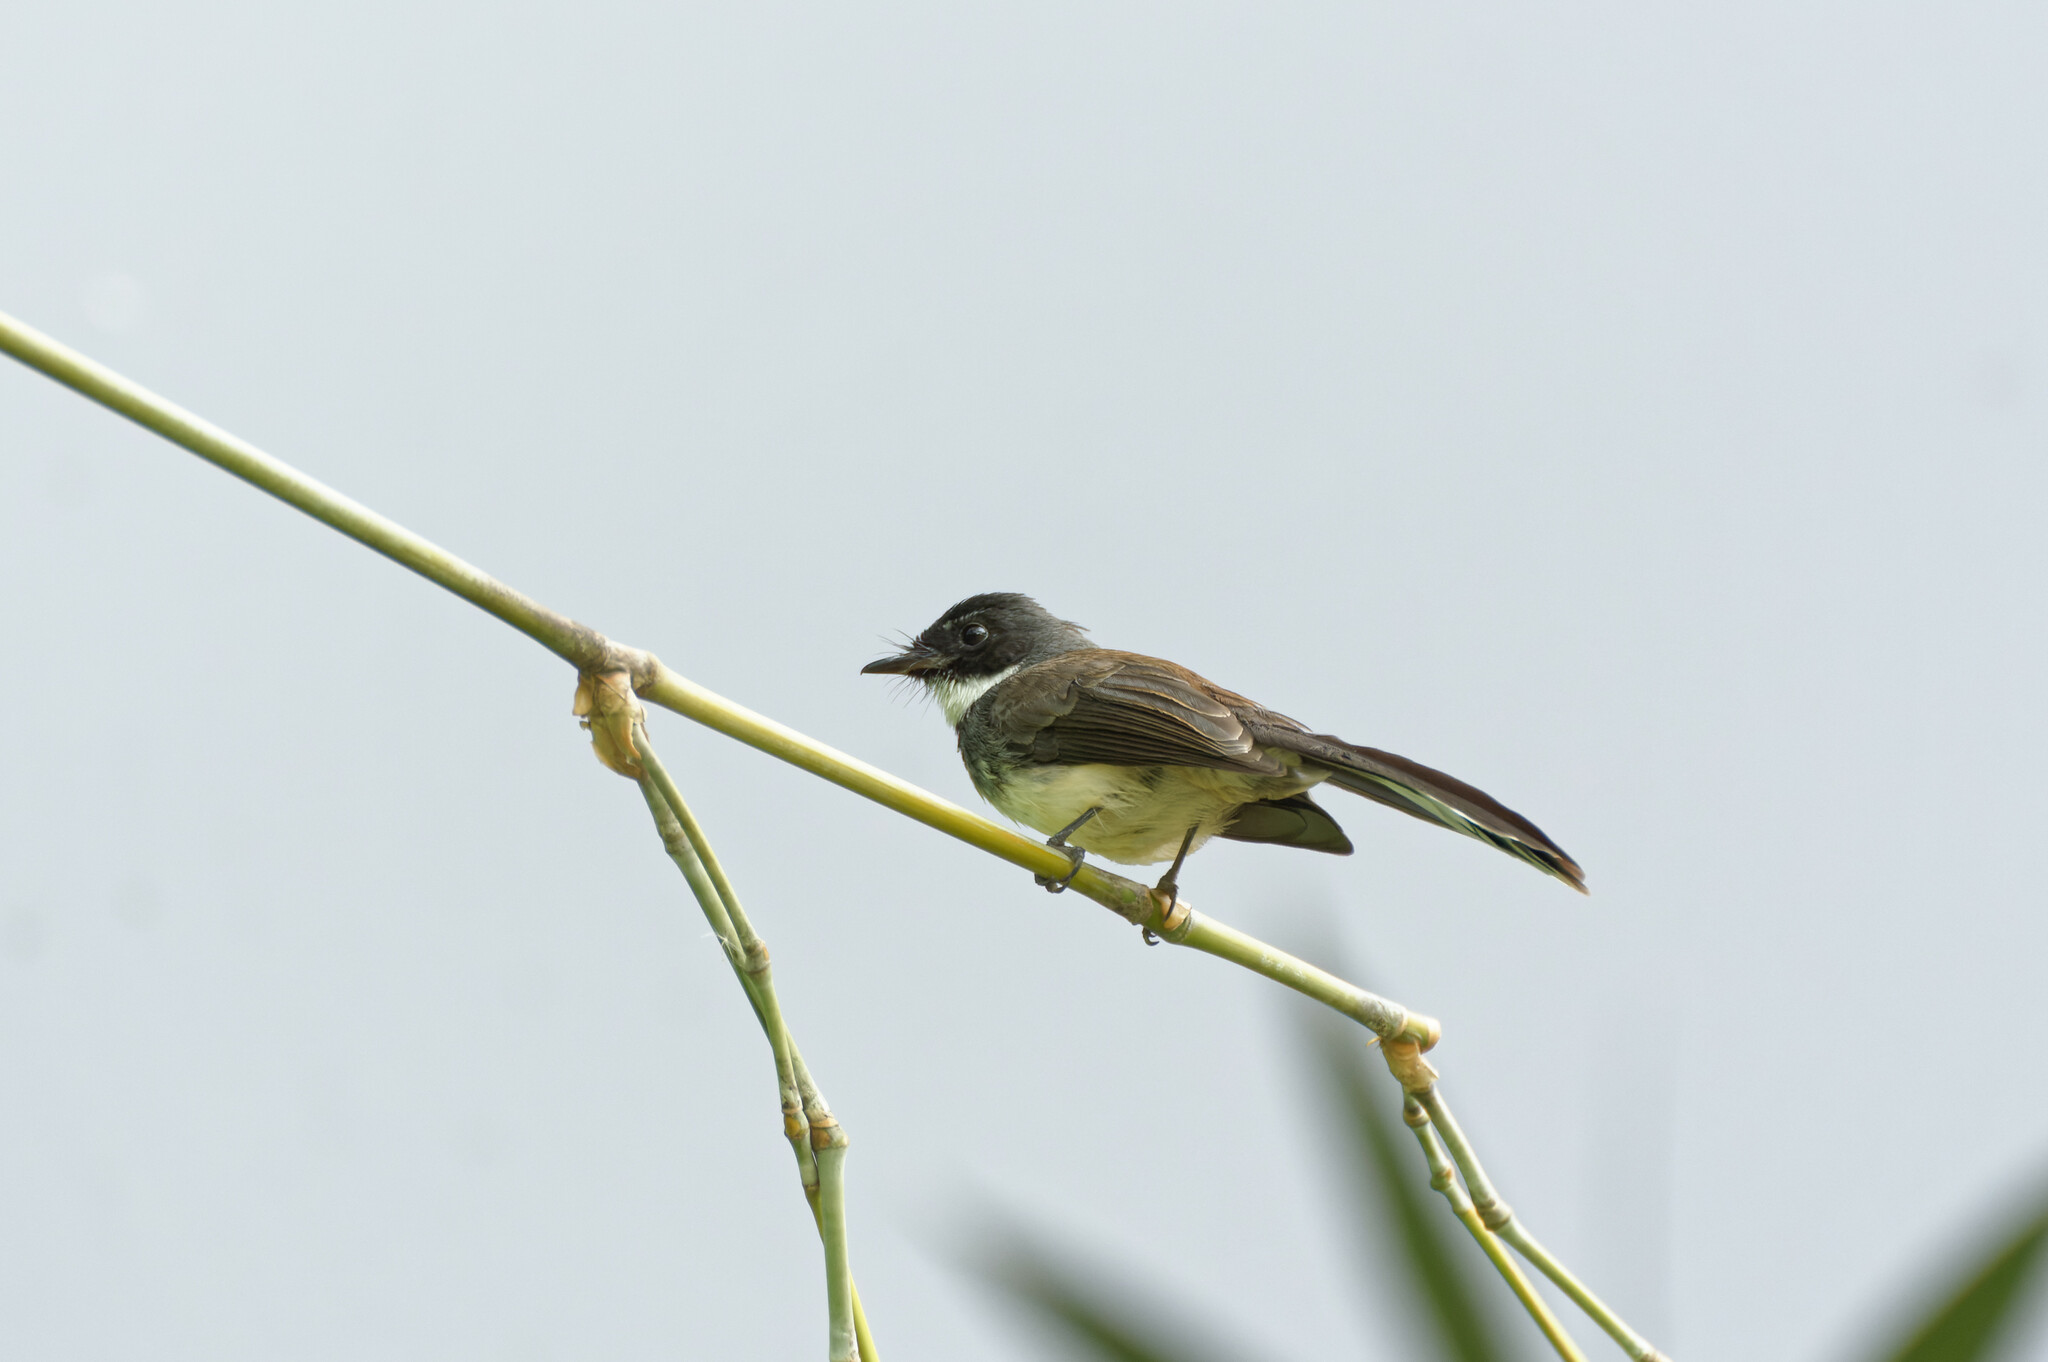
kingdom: Animalia
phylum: Chordata
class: Aves
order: Passeriformes
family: Rhipiduridae
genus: Rhipidura
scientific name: Rhipidura javanica
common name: Pied fantail
